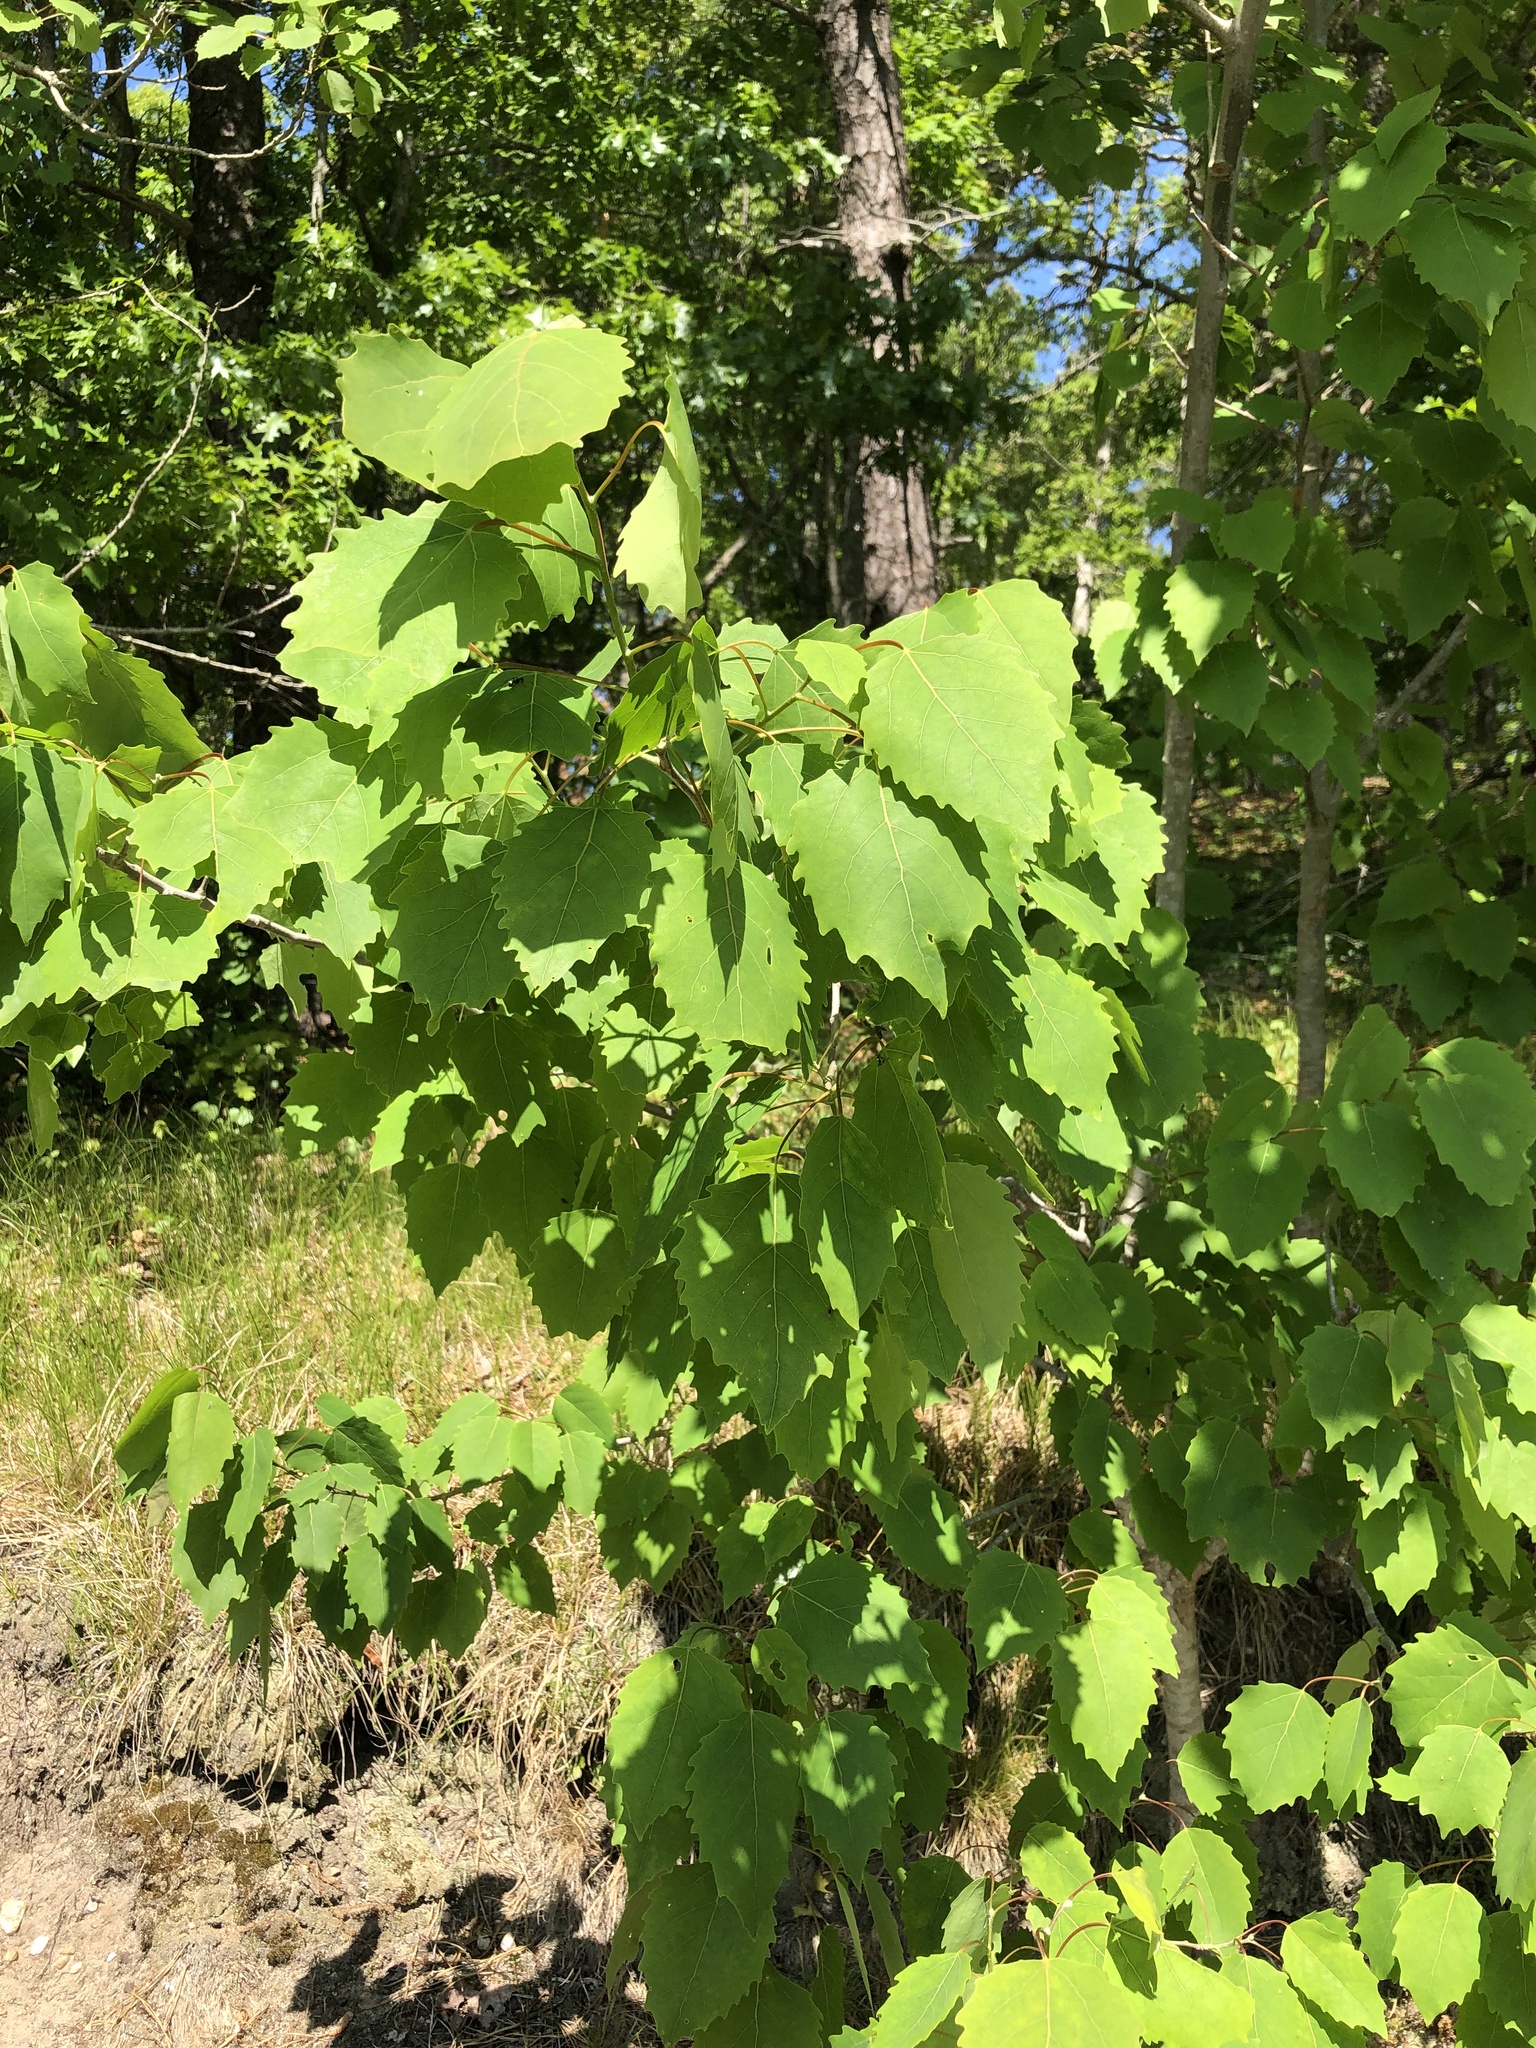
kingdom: Plantae
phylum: Tracheophyta
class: Magnoliopsida
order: Malpighiales
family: Salicaceae
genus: Populus
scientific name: Populus grandidentata
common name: Bigtooth aspen
